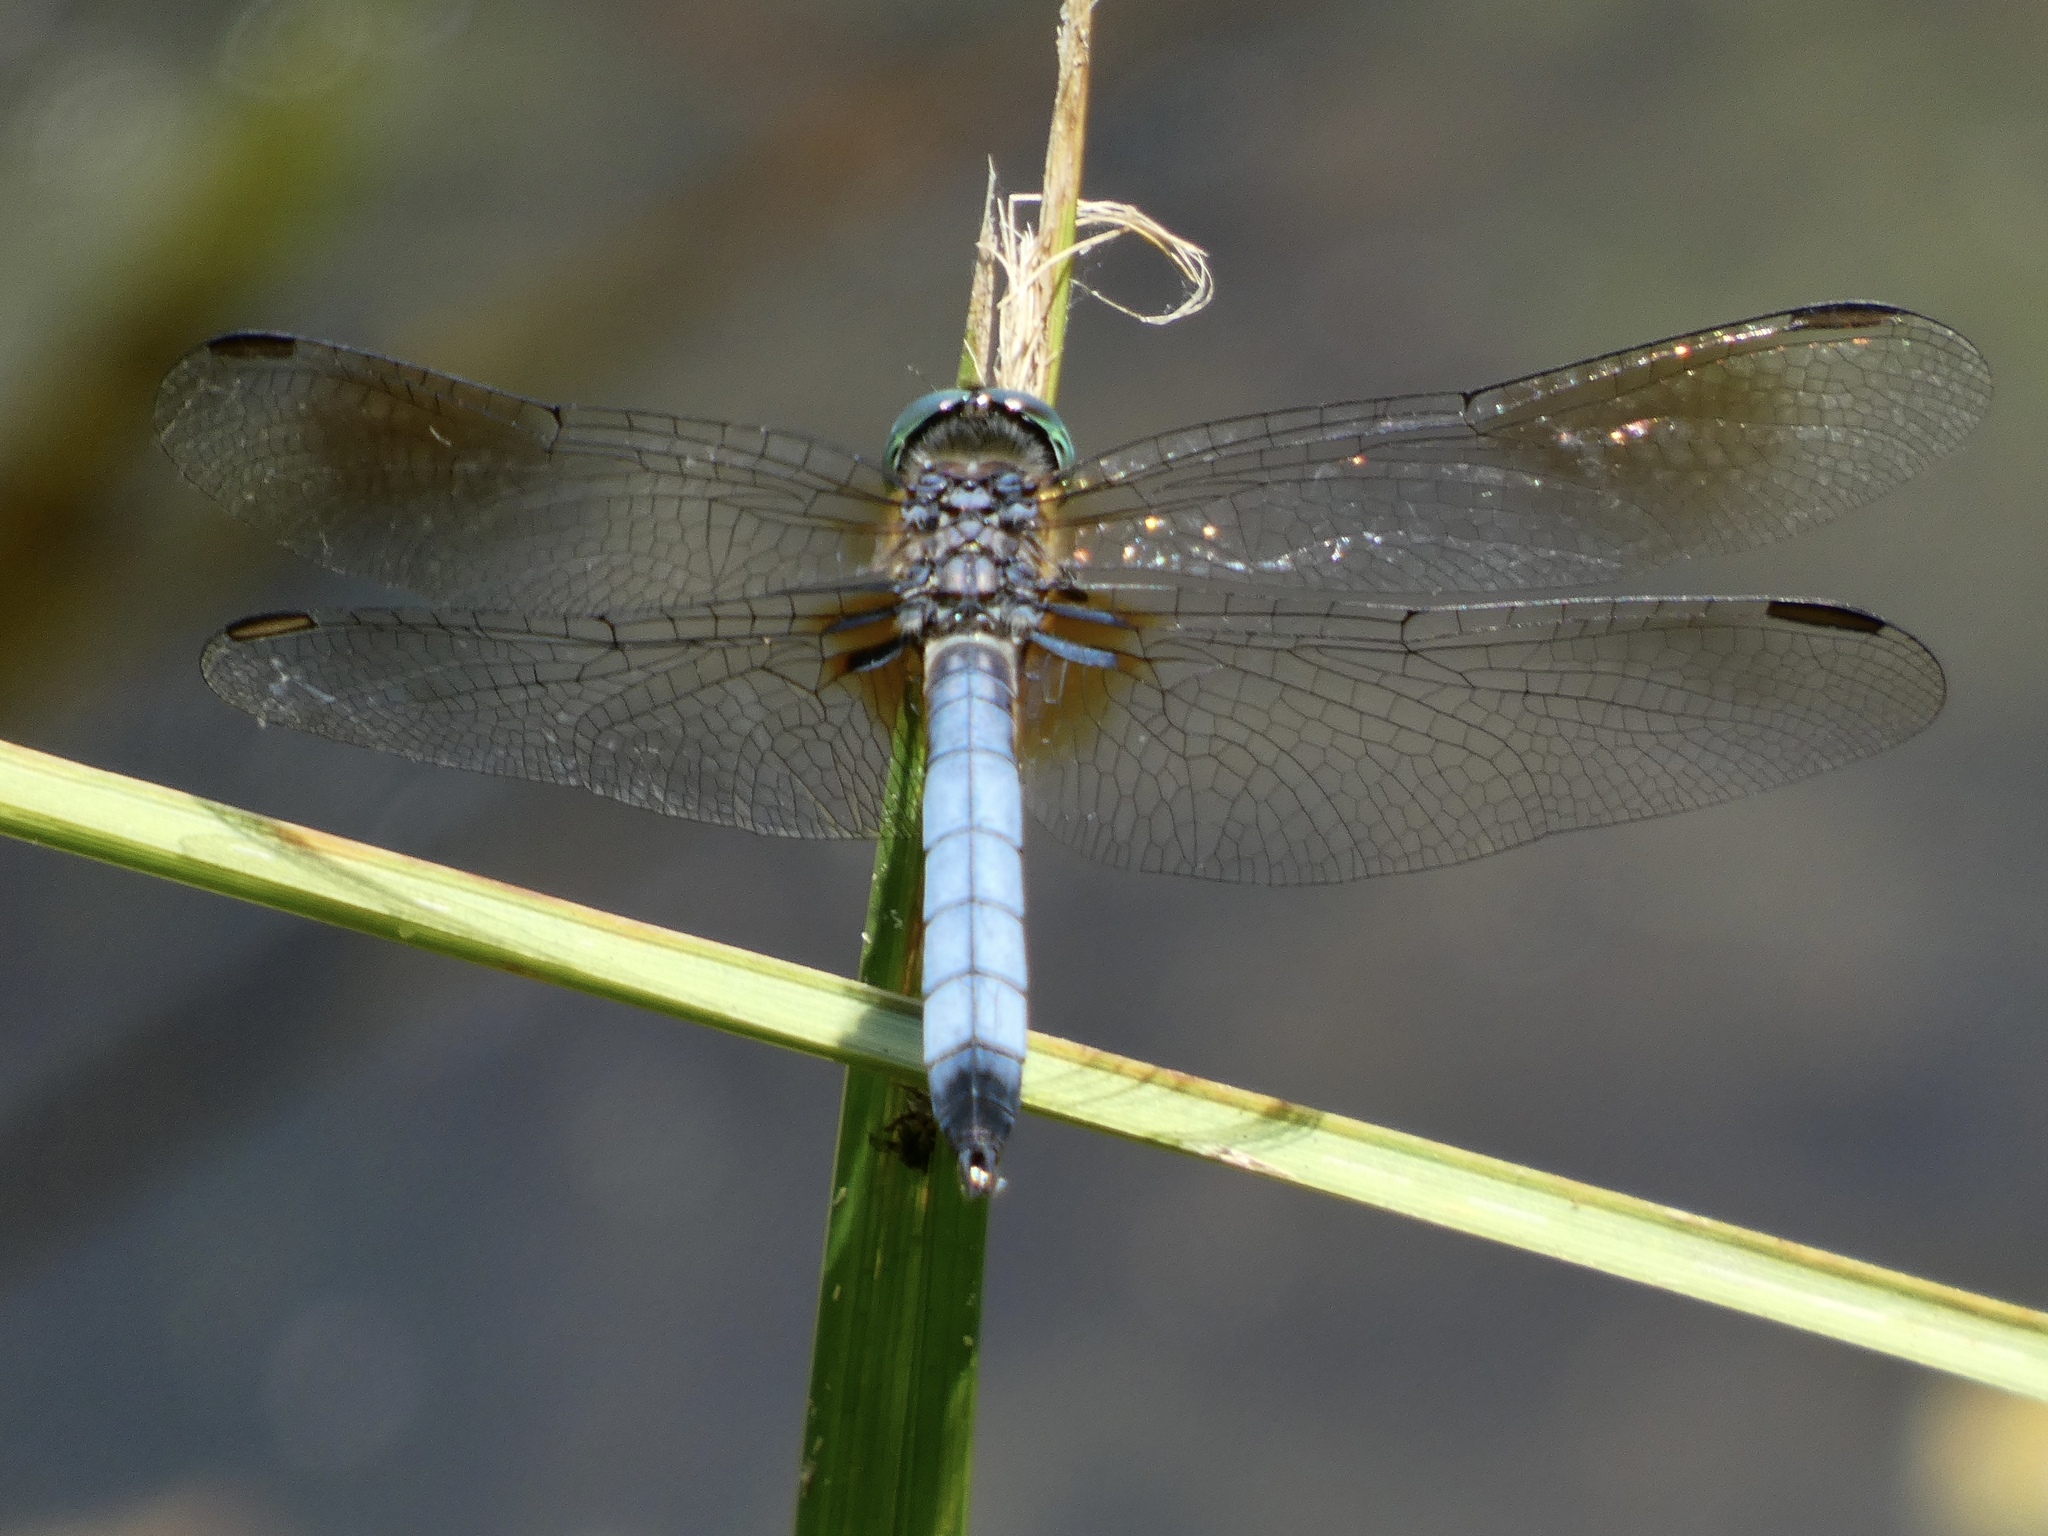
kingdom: Animalia
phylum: Arthropoda
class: Insecta
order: Odonata
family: Libellulidae
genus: Pachydiplax
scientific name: Pachydiplax longipennis
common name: Blue dasher
